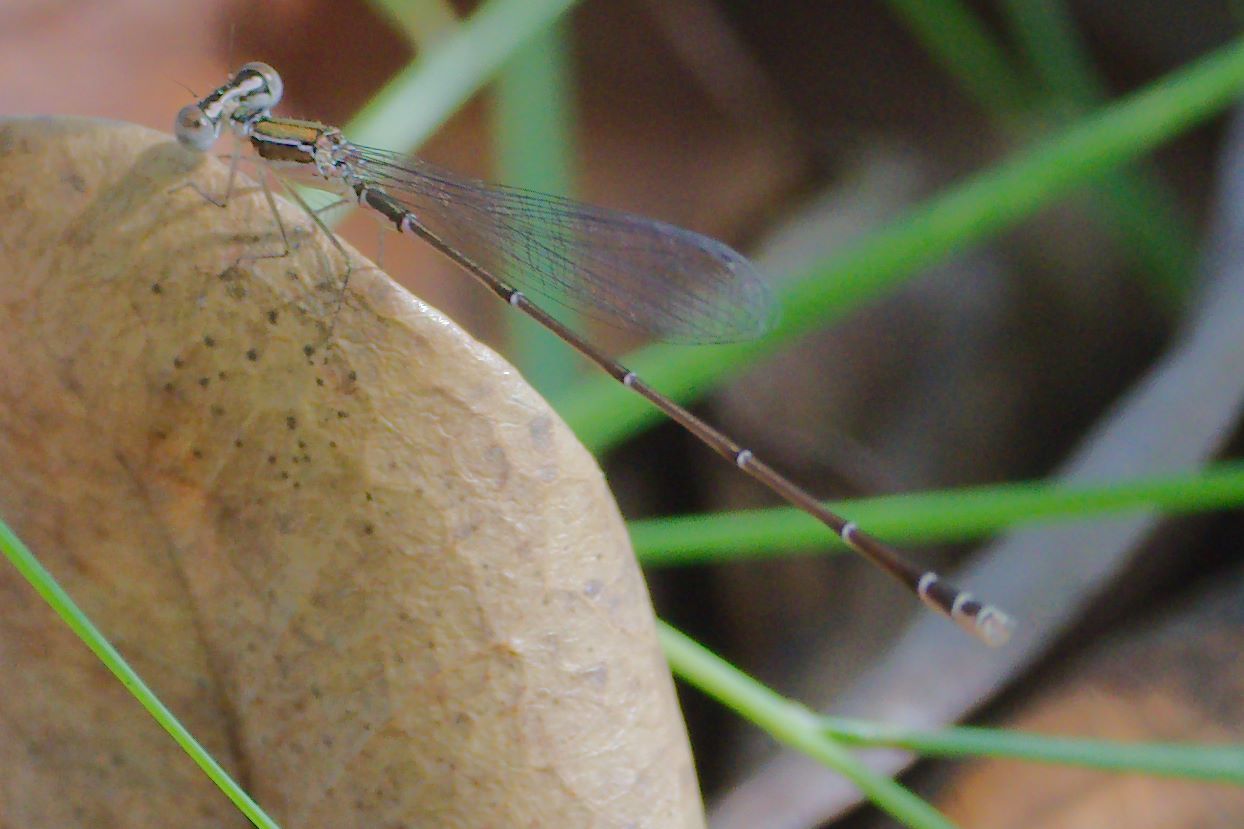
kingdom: Animalia
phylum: Arthropoda
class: Insecta
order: Odonata
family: Coenagrionidae
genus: Nehalennia
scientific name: Nehalennia pallidula
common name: Everglades sprite
